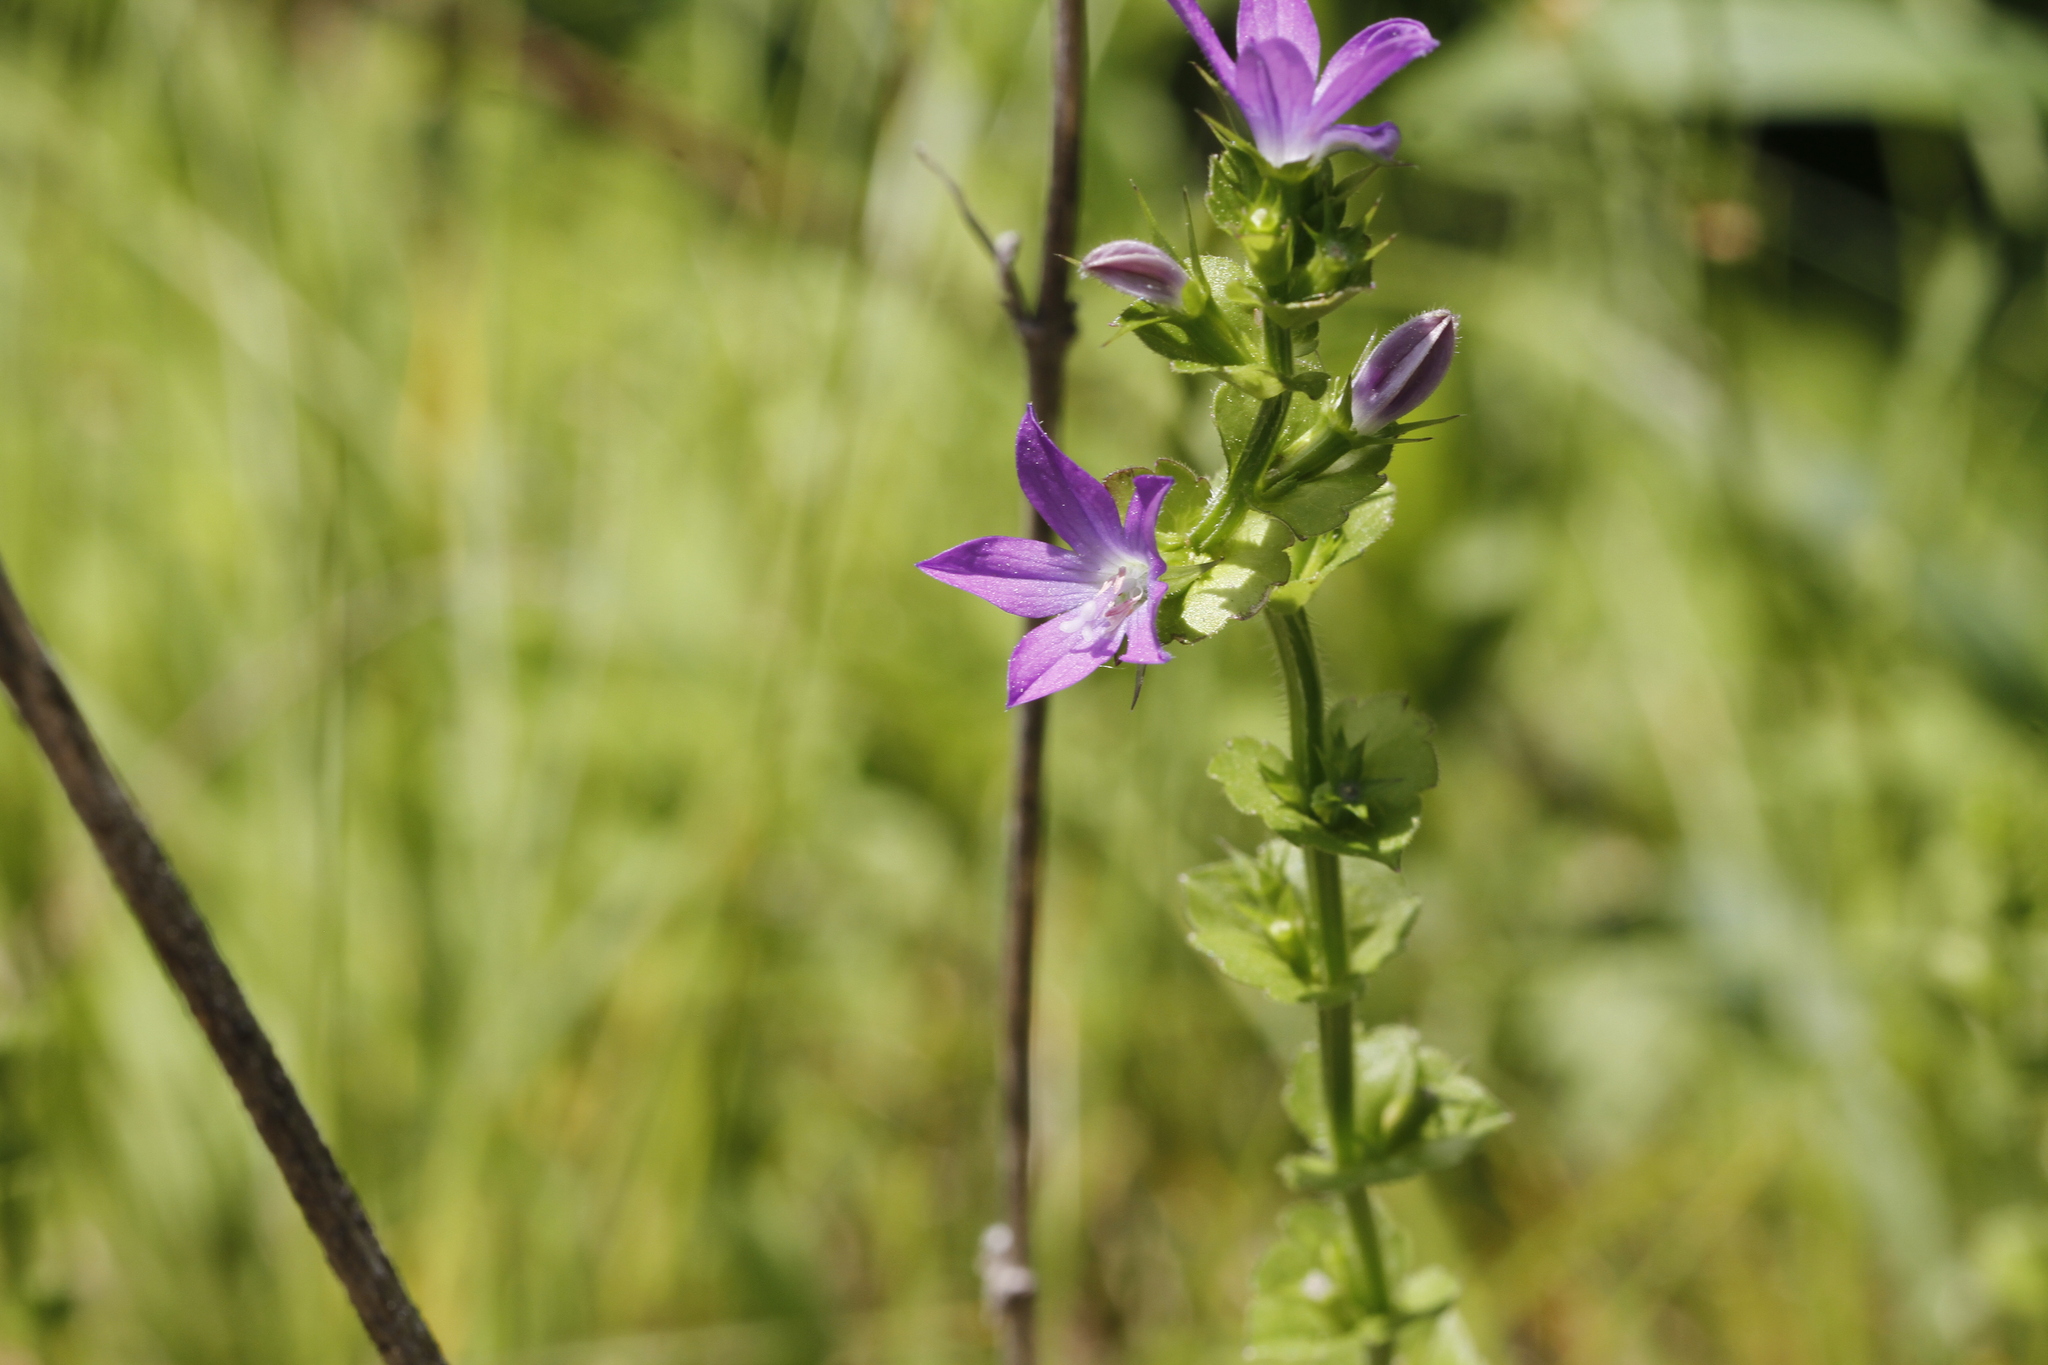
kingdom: Plantae
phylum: Tracheophyta
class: Magnoliopsida
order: Asterales
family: Campanulaceae
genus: Triodanis
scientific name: Triodanis perfoliata
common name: Clasping venus' looking-glass
